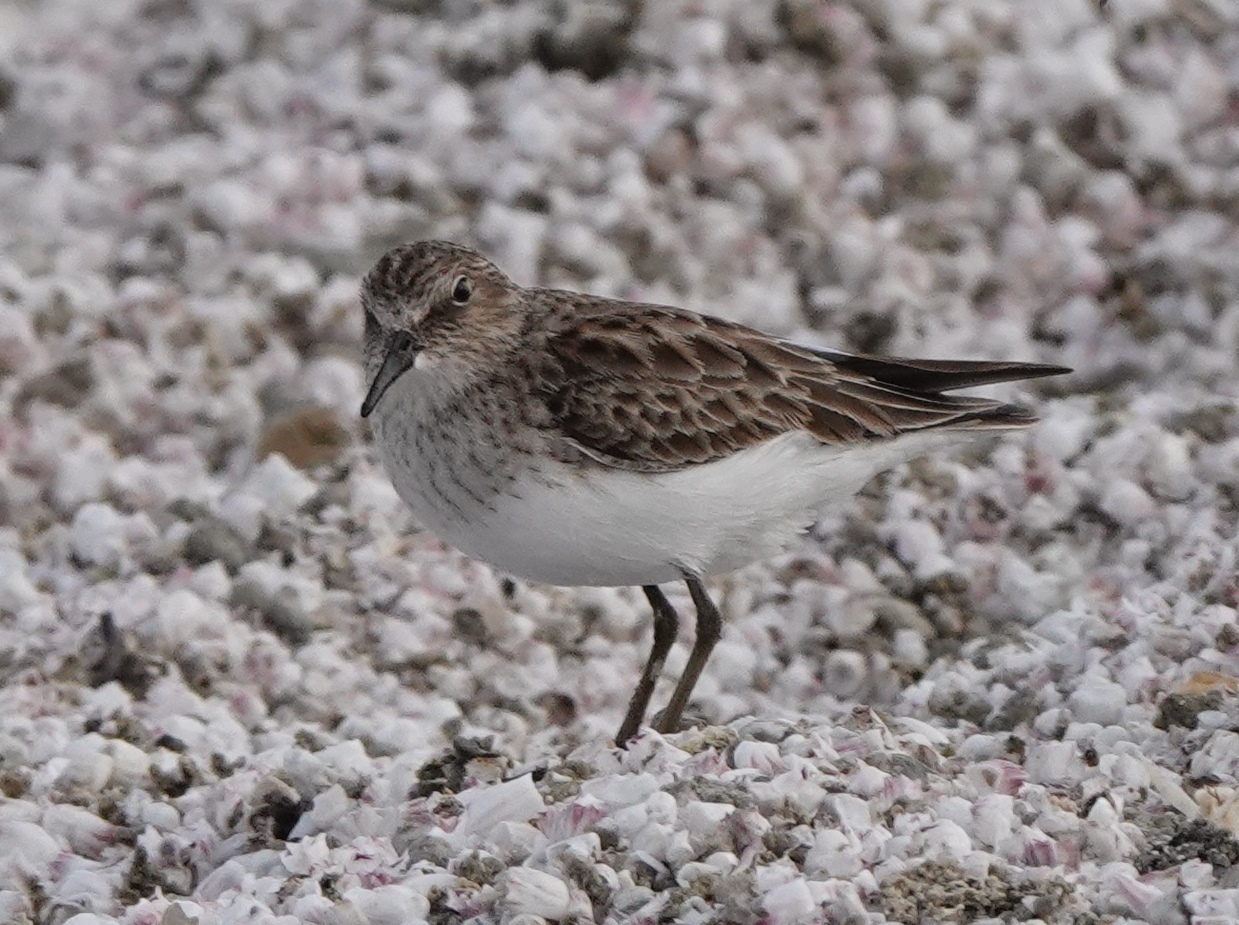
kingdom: Animalia
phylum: Chordata
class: Aves
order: Charadriiformes
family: Scolopacidae
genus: Calidris
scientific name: Calidris minutilla
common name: Least sandpiper
